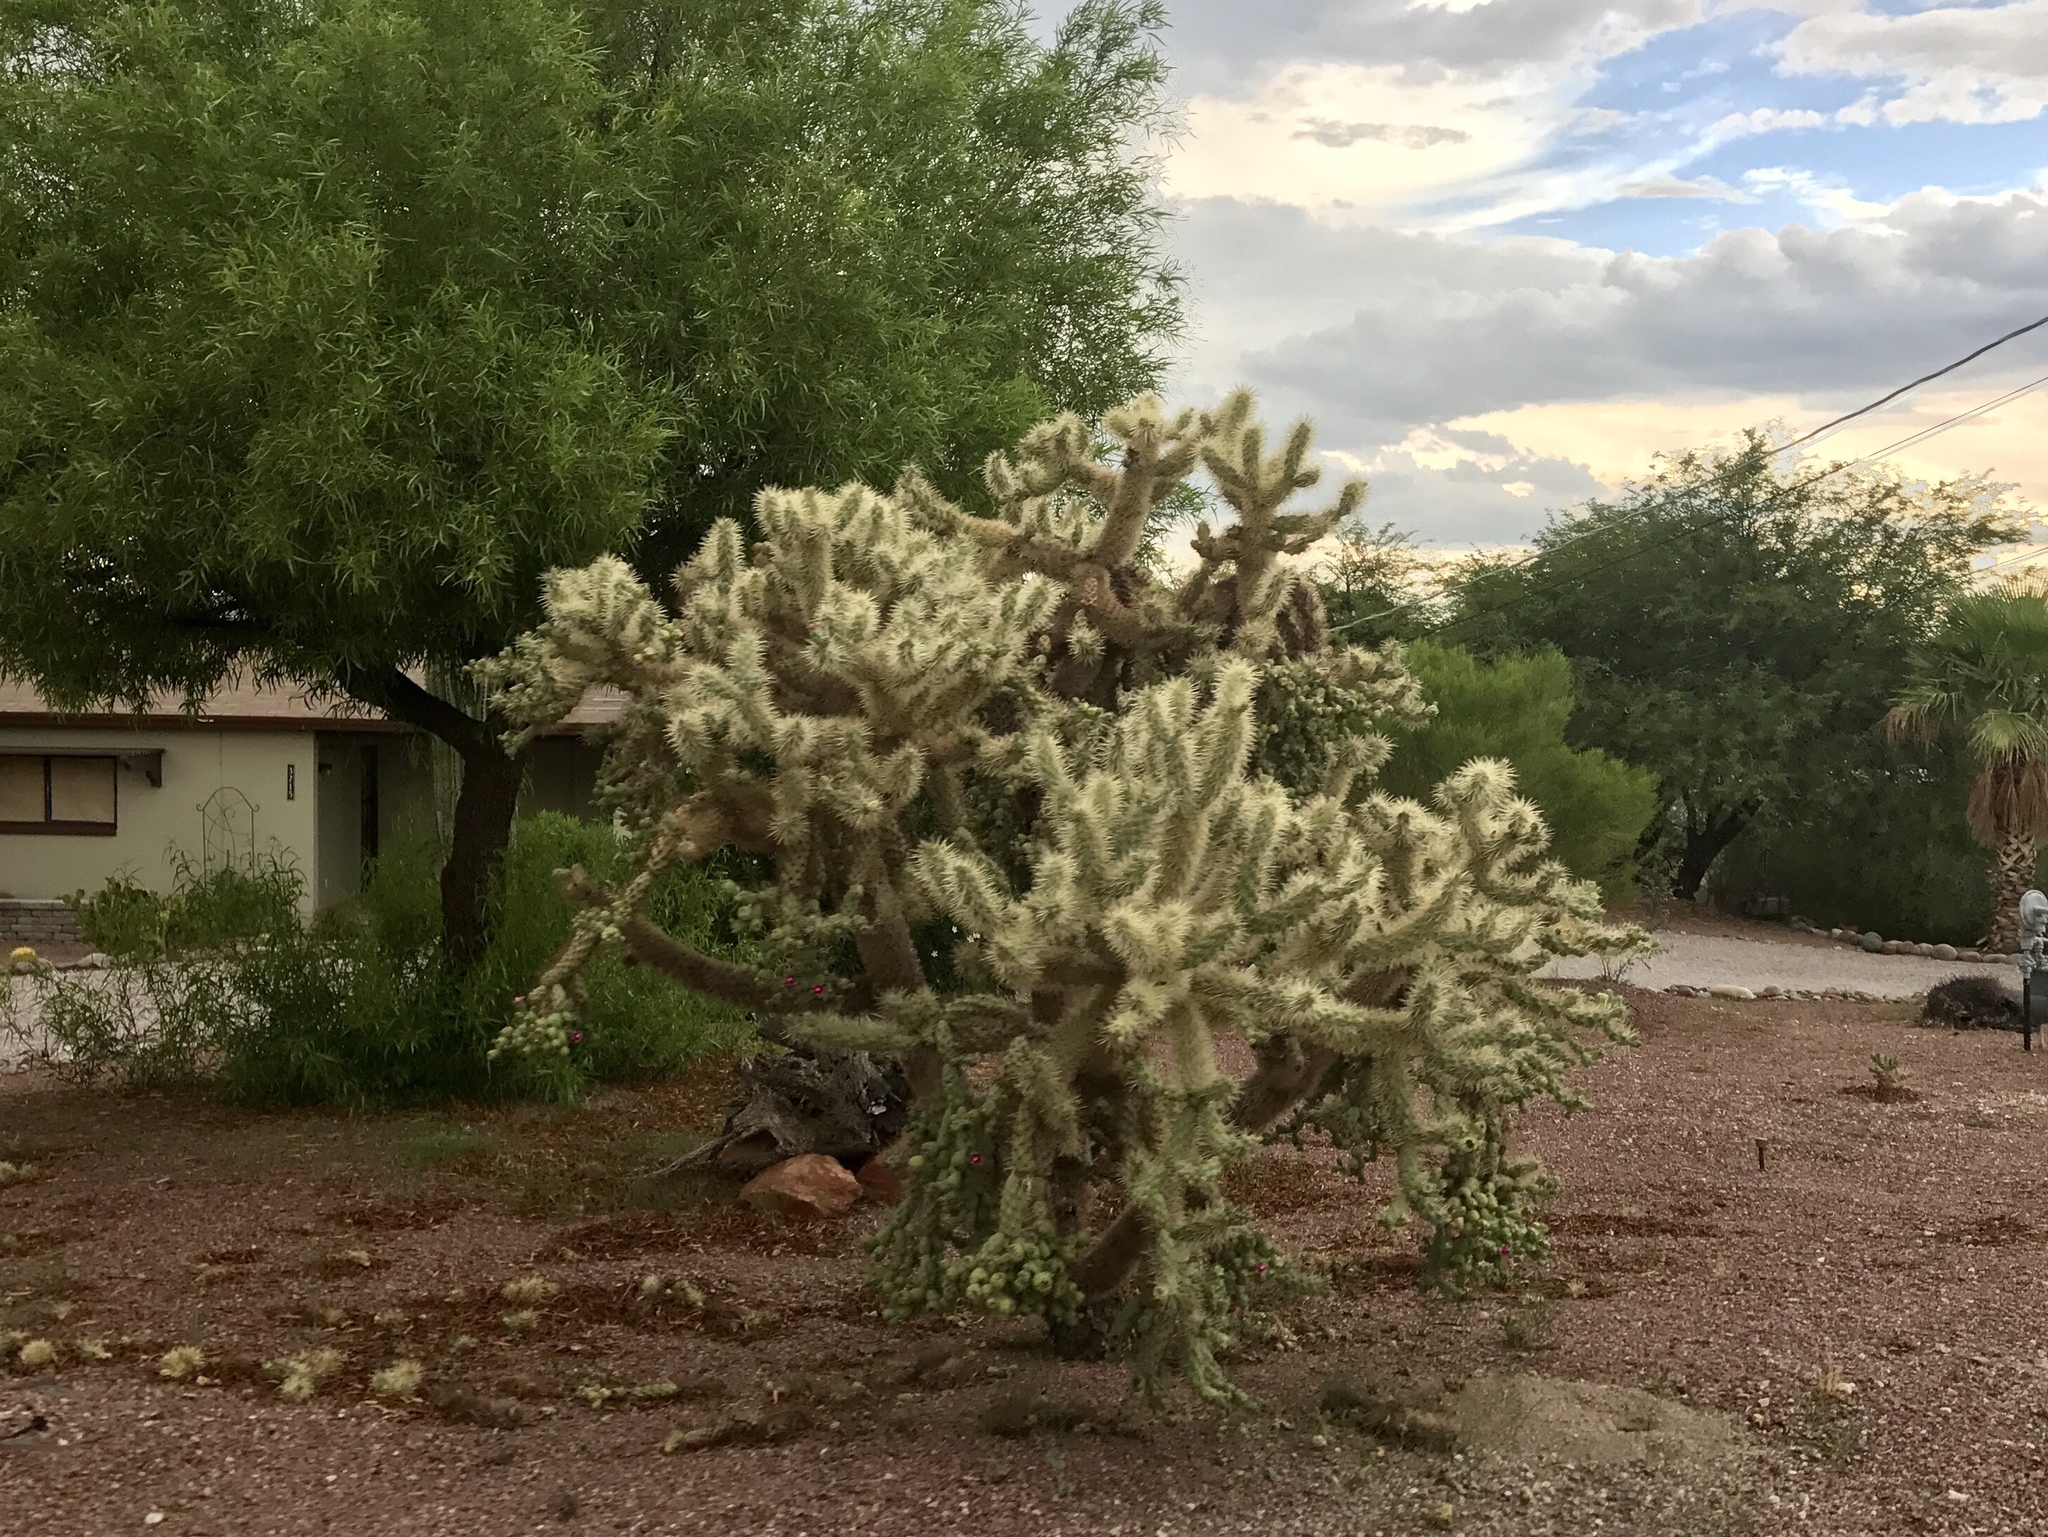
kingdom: Plantae
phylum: Tracheophyta
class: Magnoliopsida
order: Caryophyllales
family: Cactaceae
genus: Cylindropuntia
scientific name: Cylindropuntia fulgida
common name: Jumping cholla
